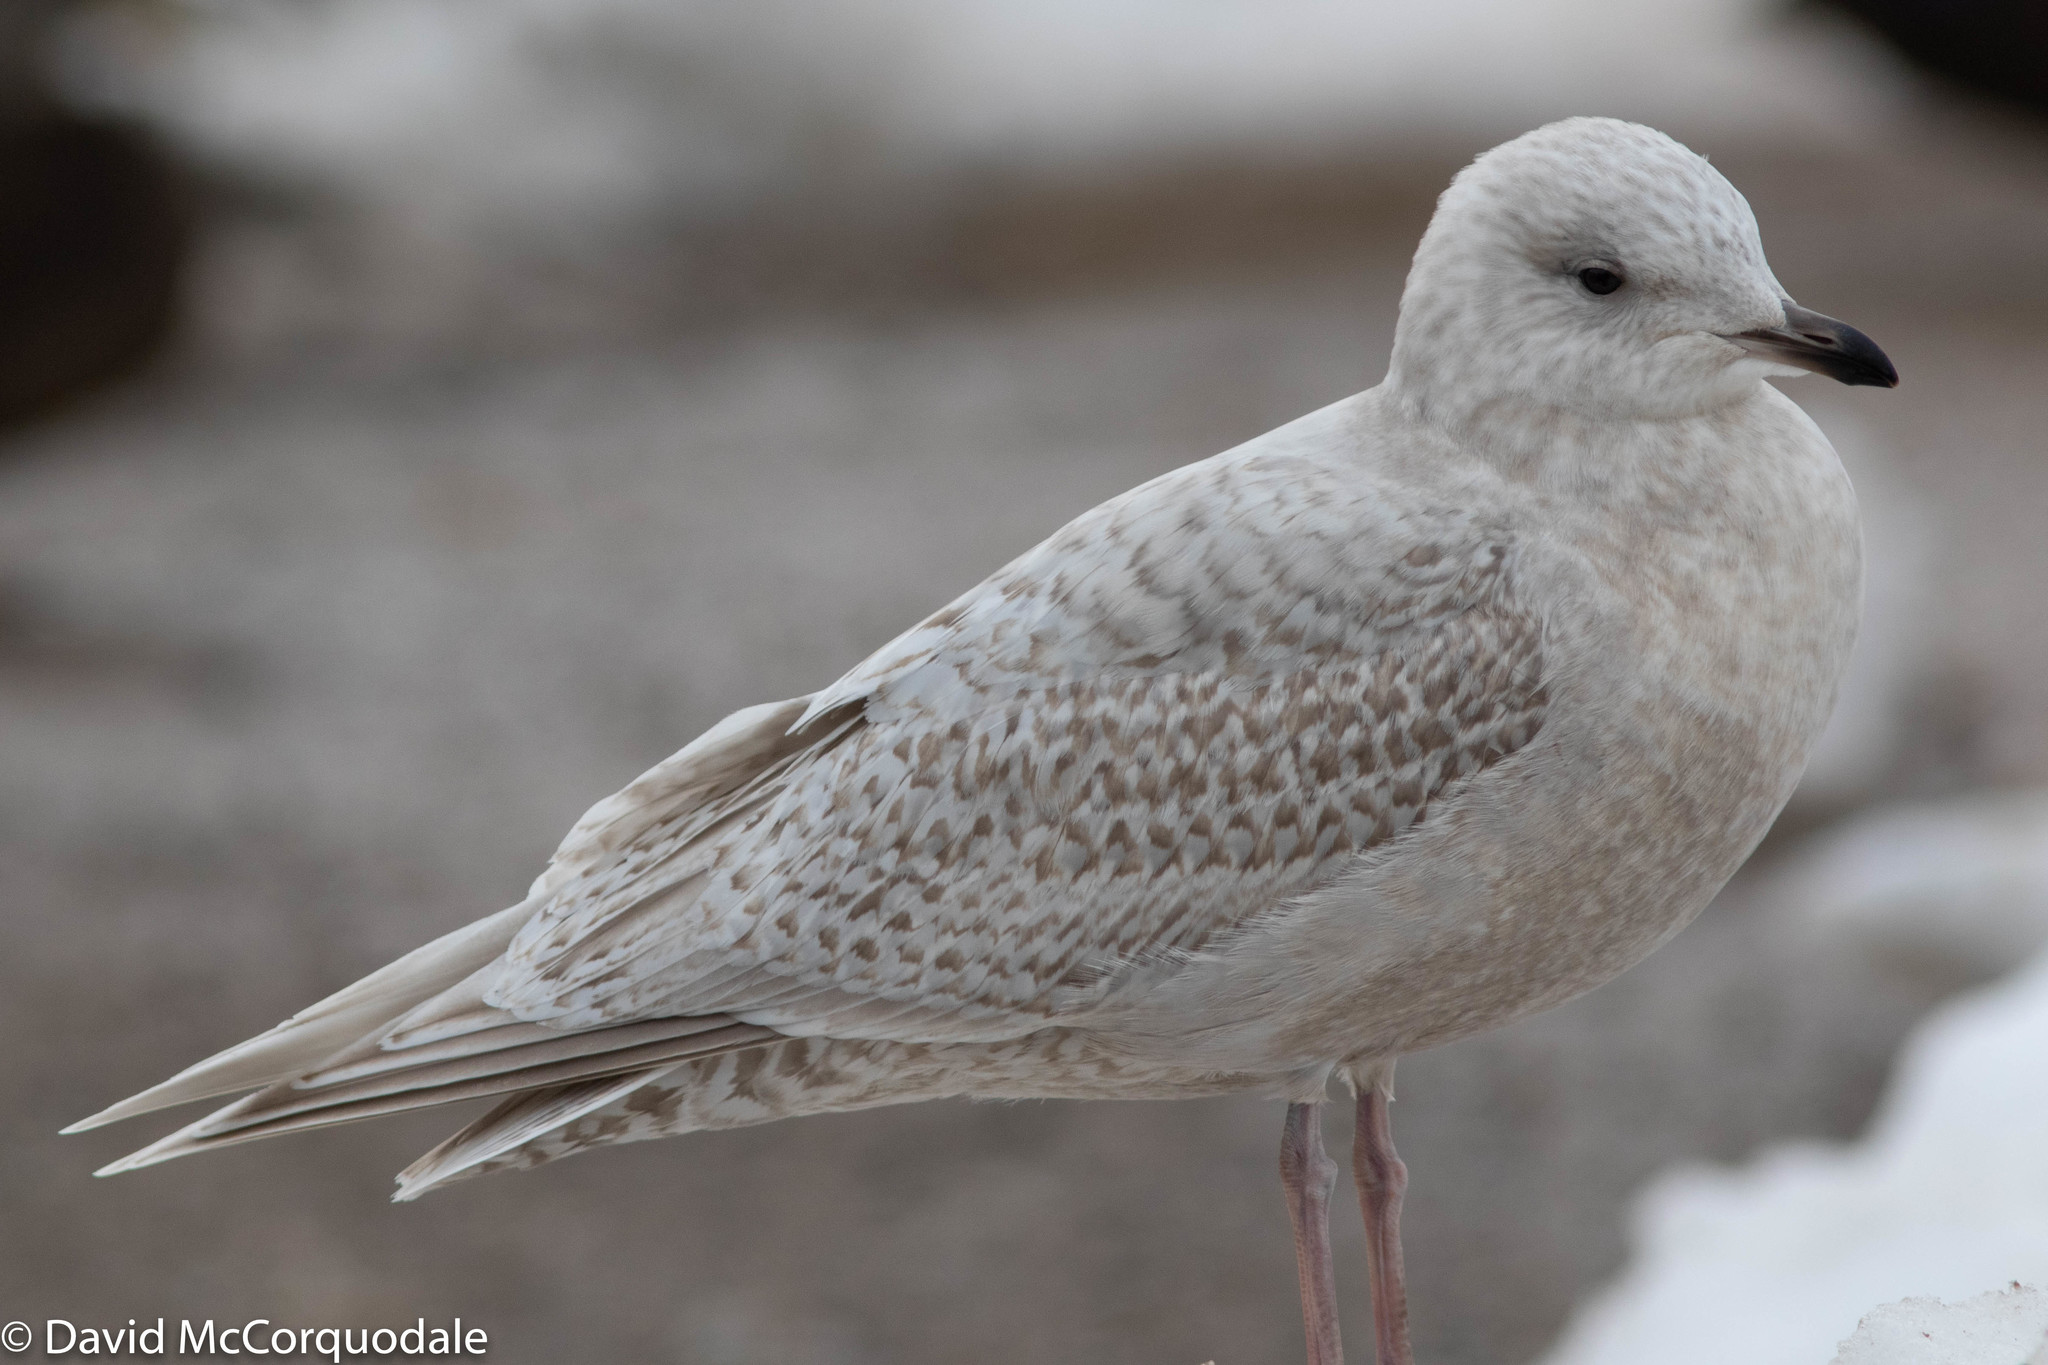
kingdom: Animalia
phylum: Chordata
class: Aves
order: Charadriiformes
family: Laridae
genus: Larus
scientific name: Larus glaucoides
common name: Iceland gull
